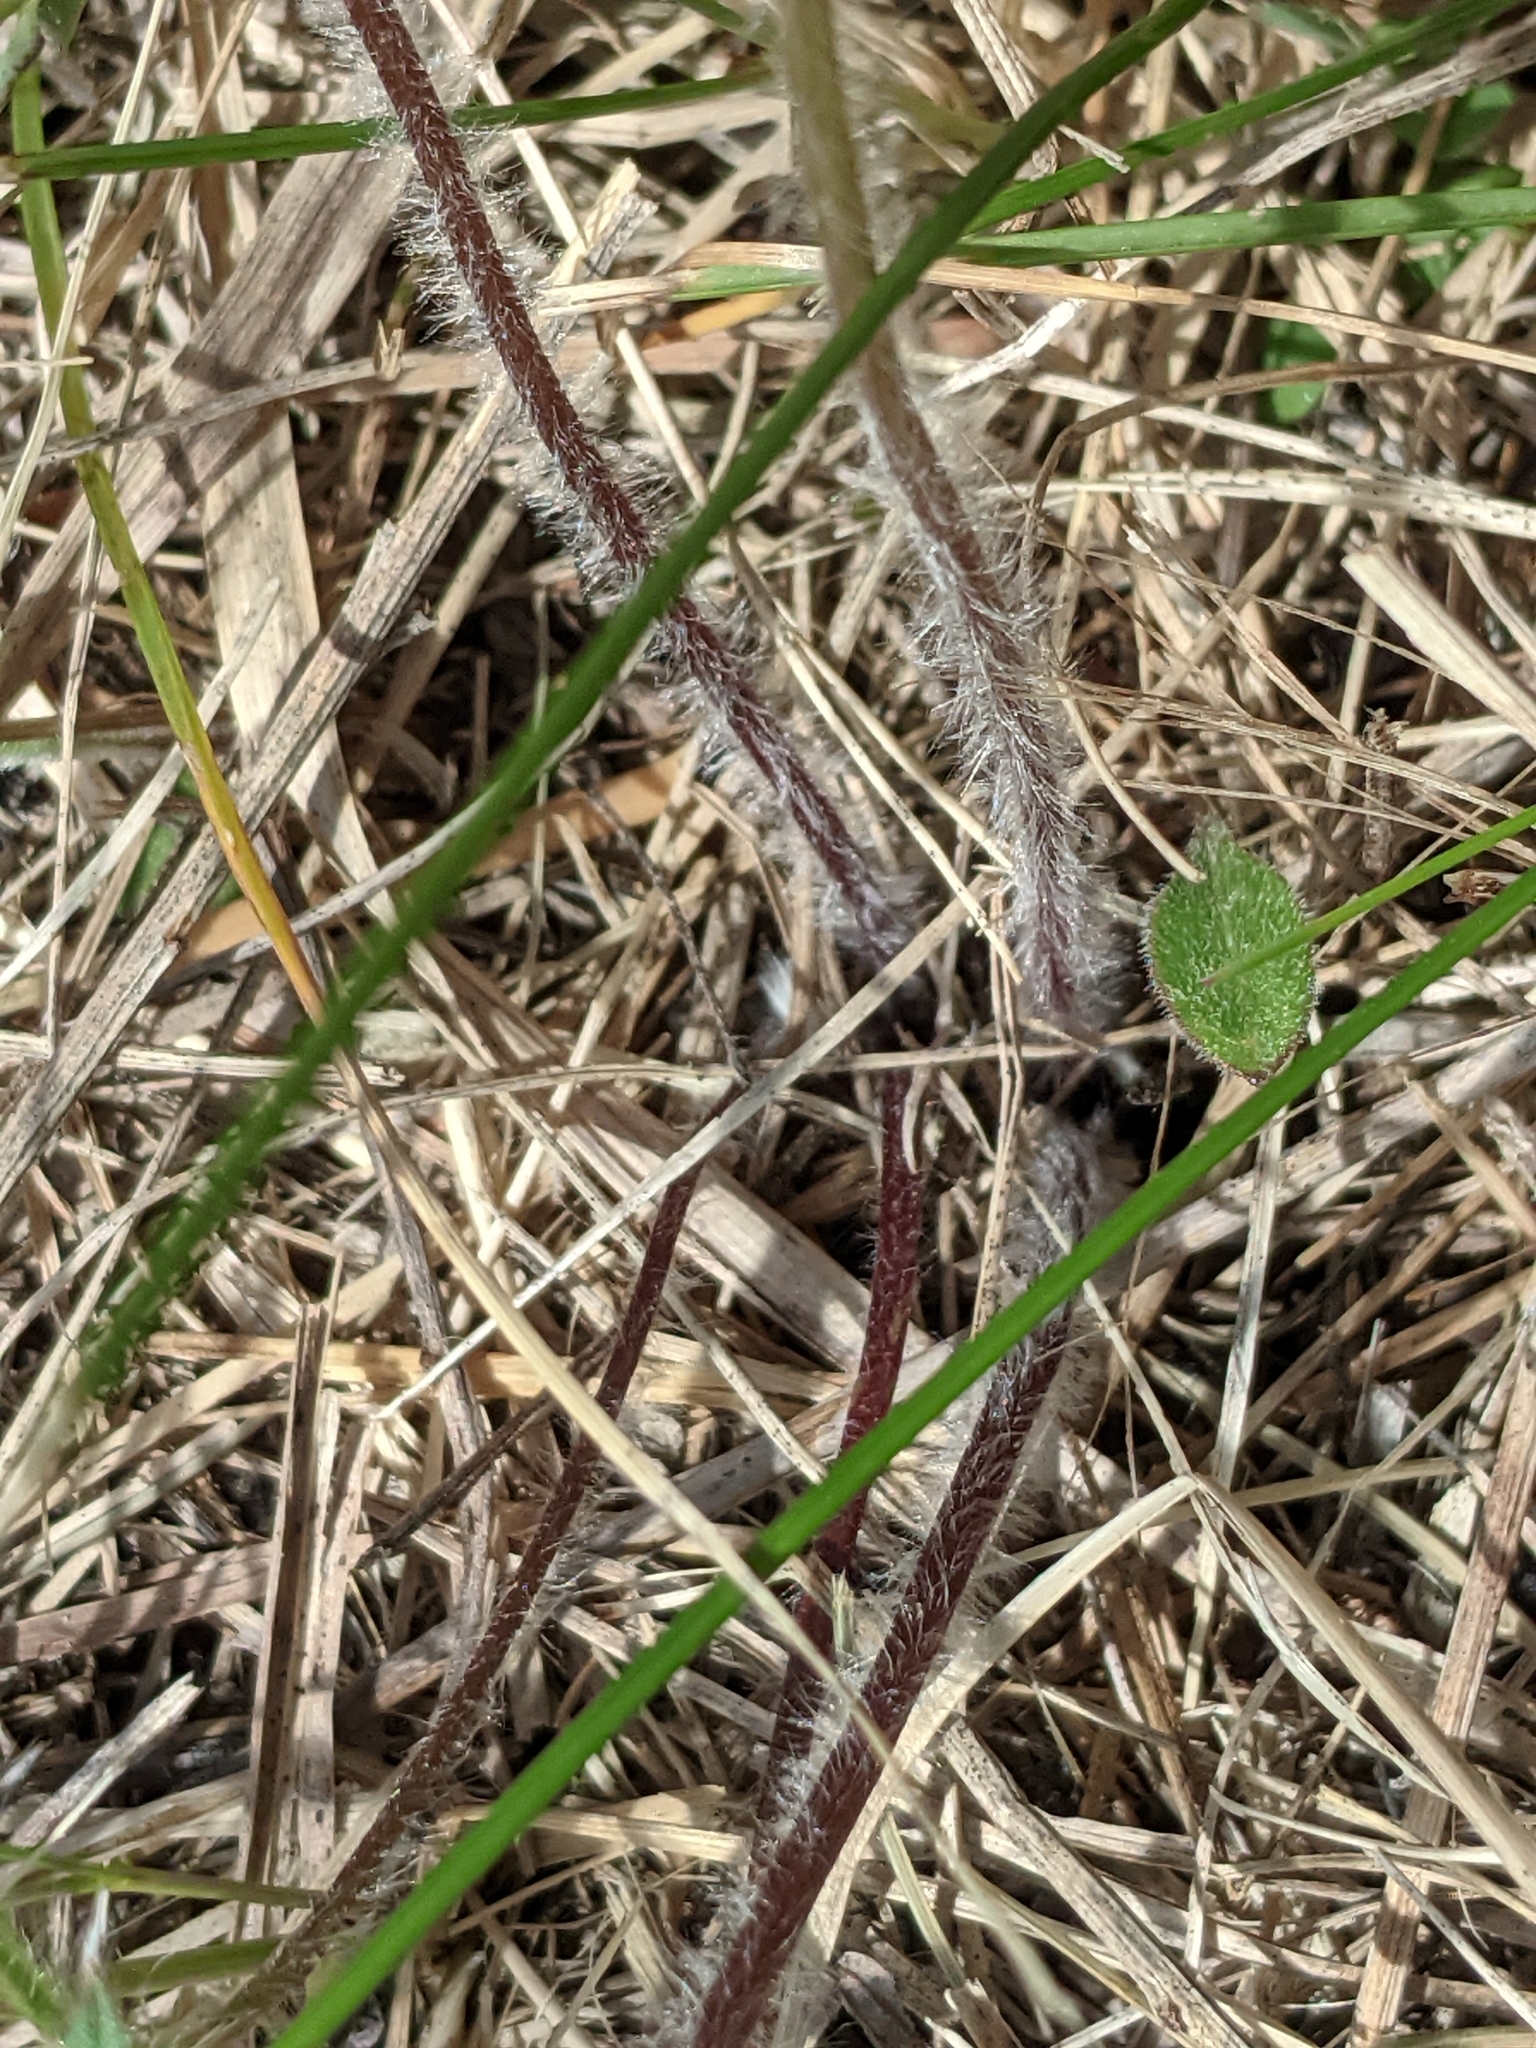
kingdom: Plantae
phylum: Tracheophyta
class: Magnoliopsida
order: Ranunculales
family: Ranunculaceae
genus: Pulsatilla
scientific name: Pulsatilla nuttalliana
